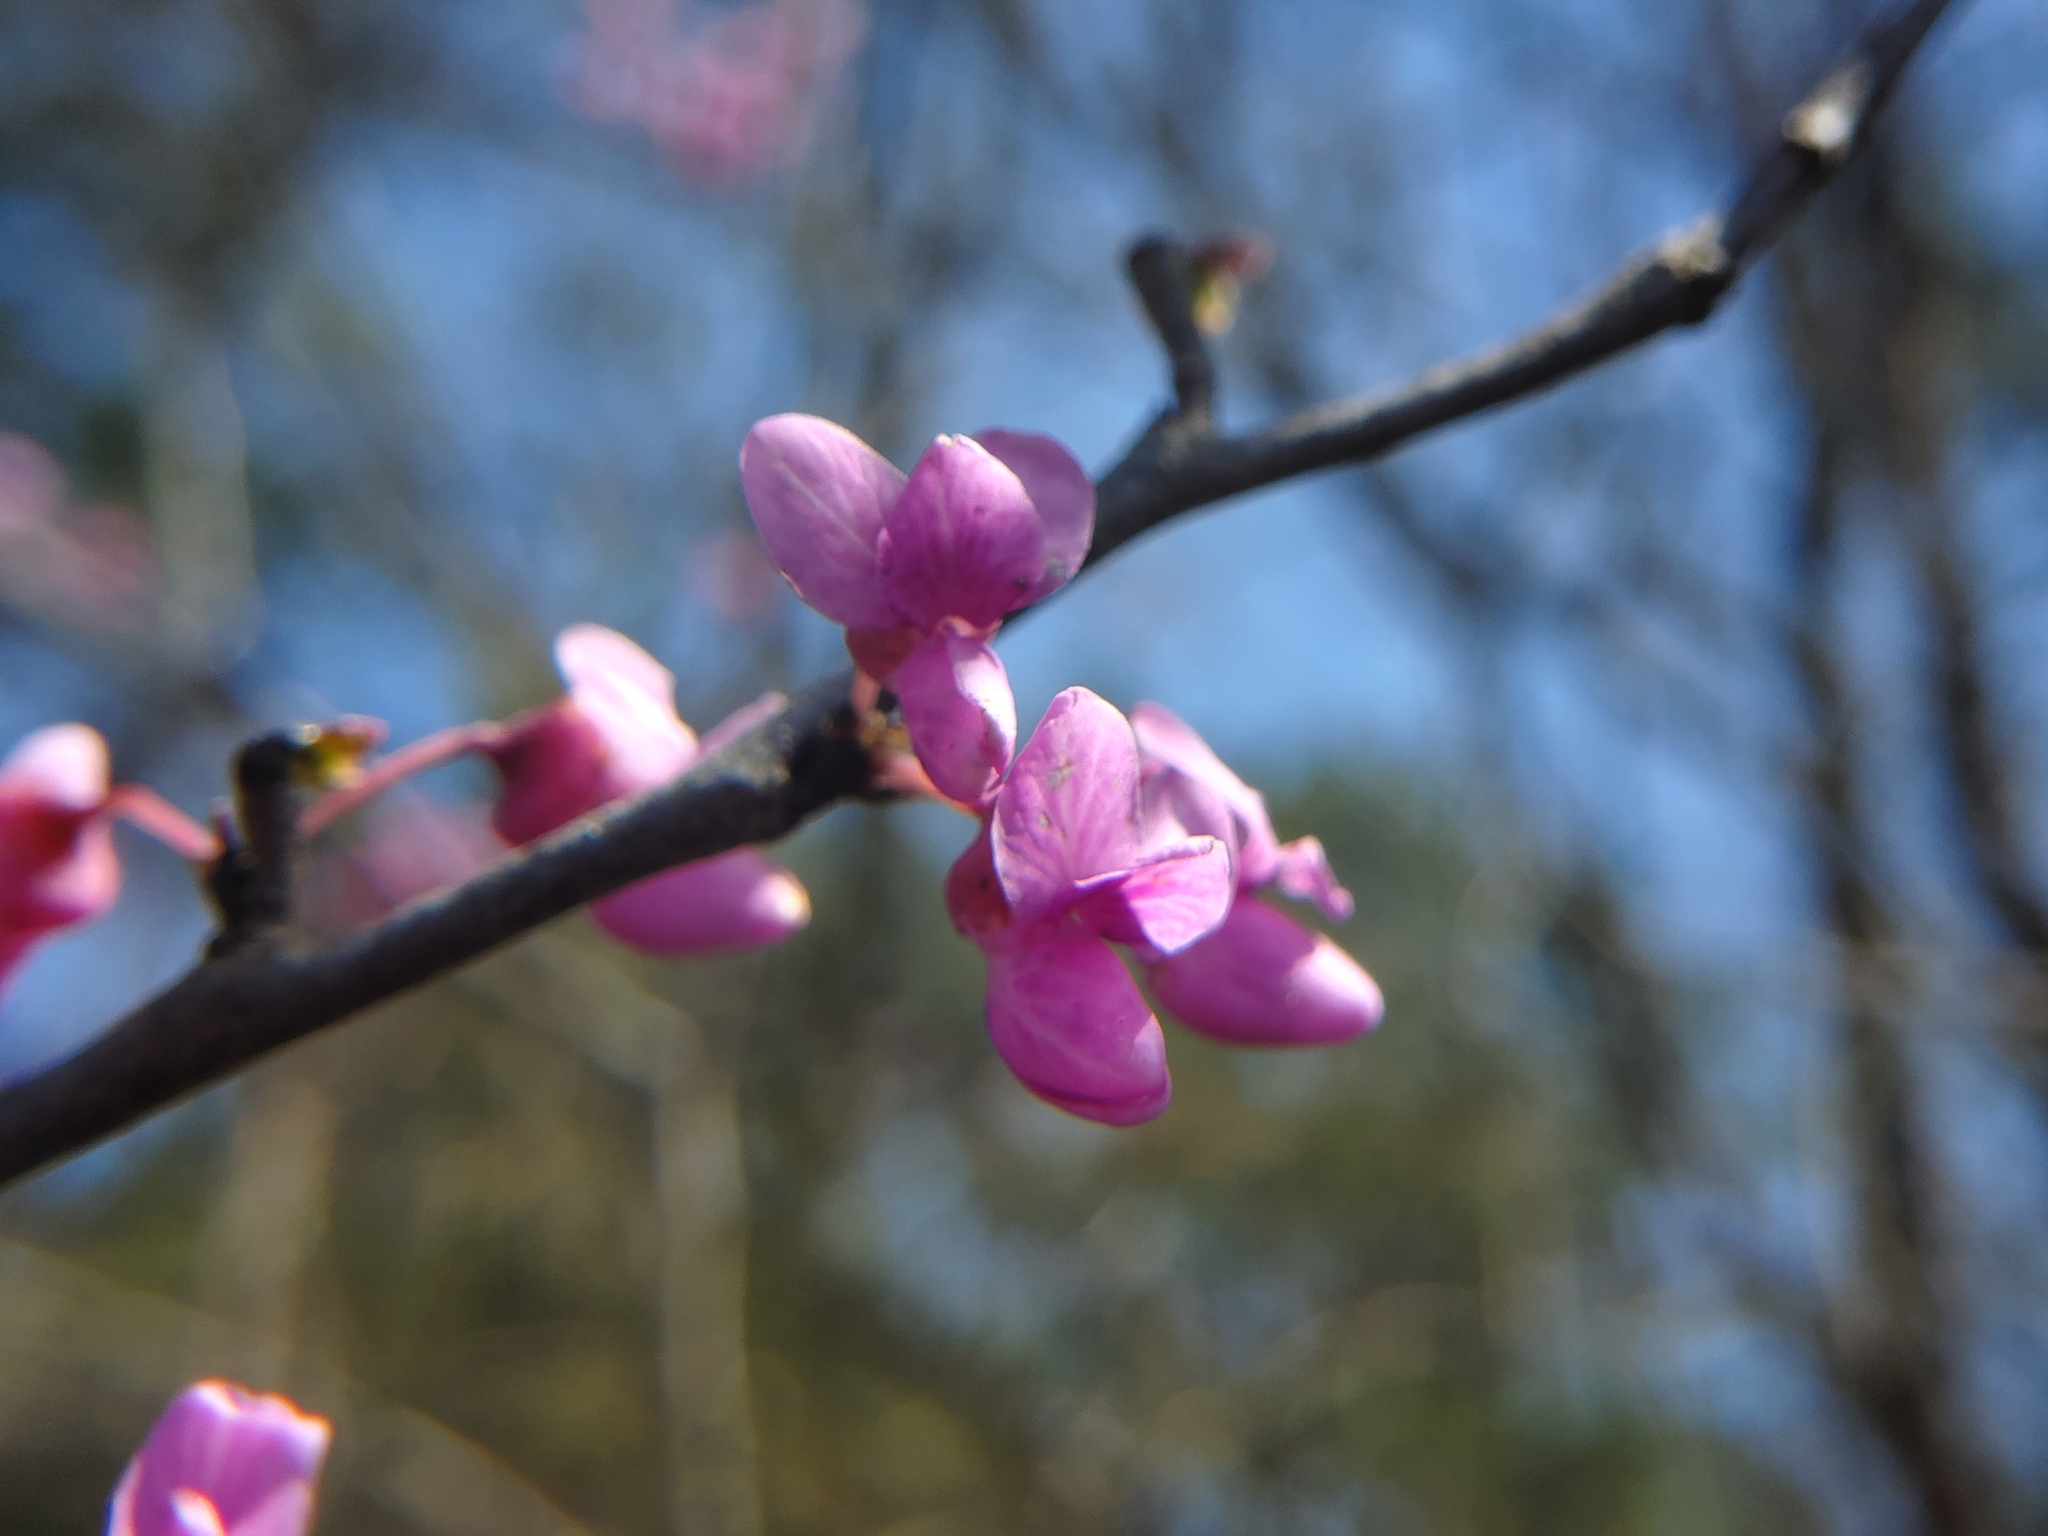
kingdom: Plantae
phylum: Tracheophyta
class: Magnoliopsida
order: Fabales
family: Fabaceae
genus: Cercis
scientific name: Cercis canadensis
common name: Eastern redbud
